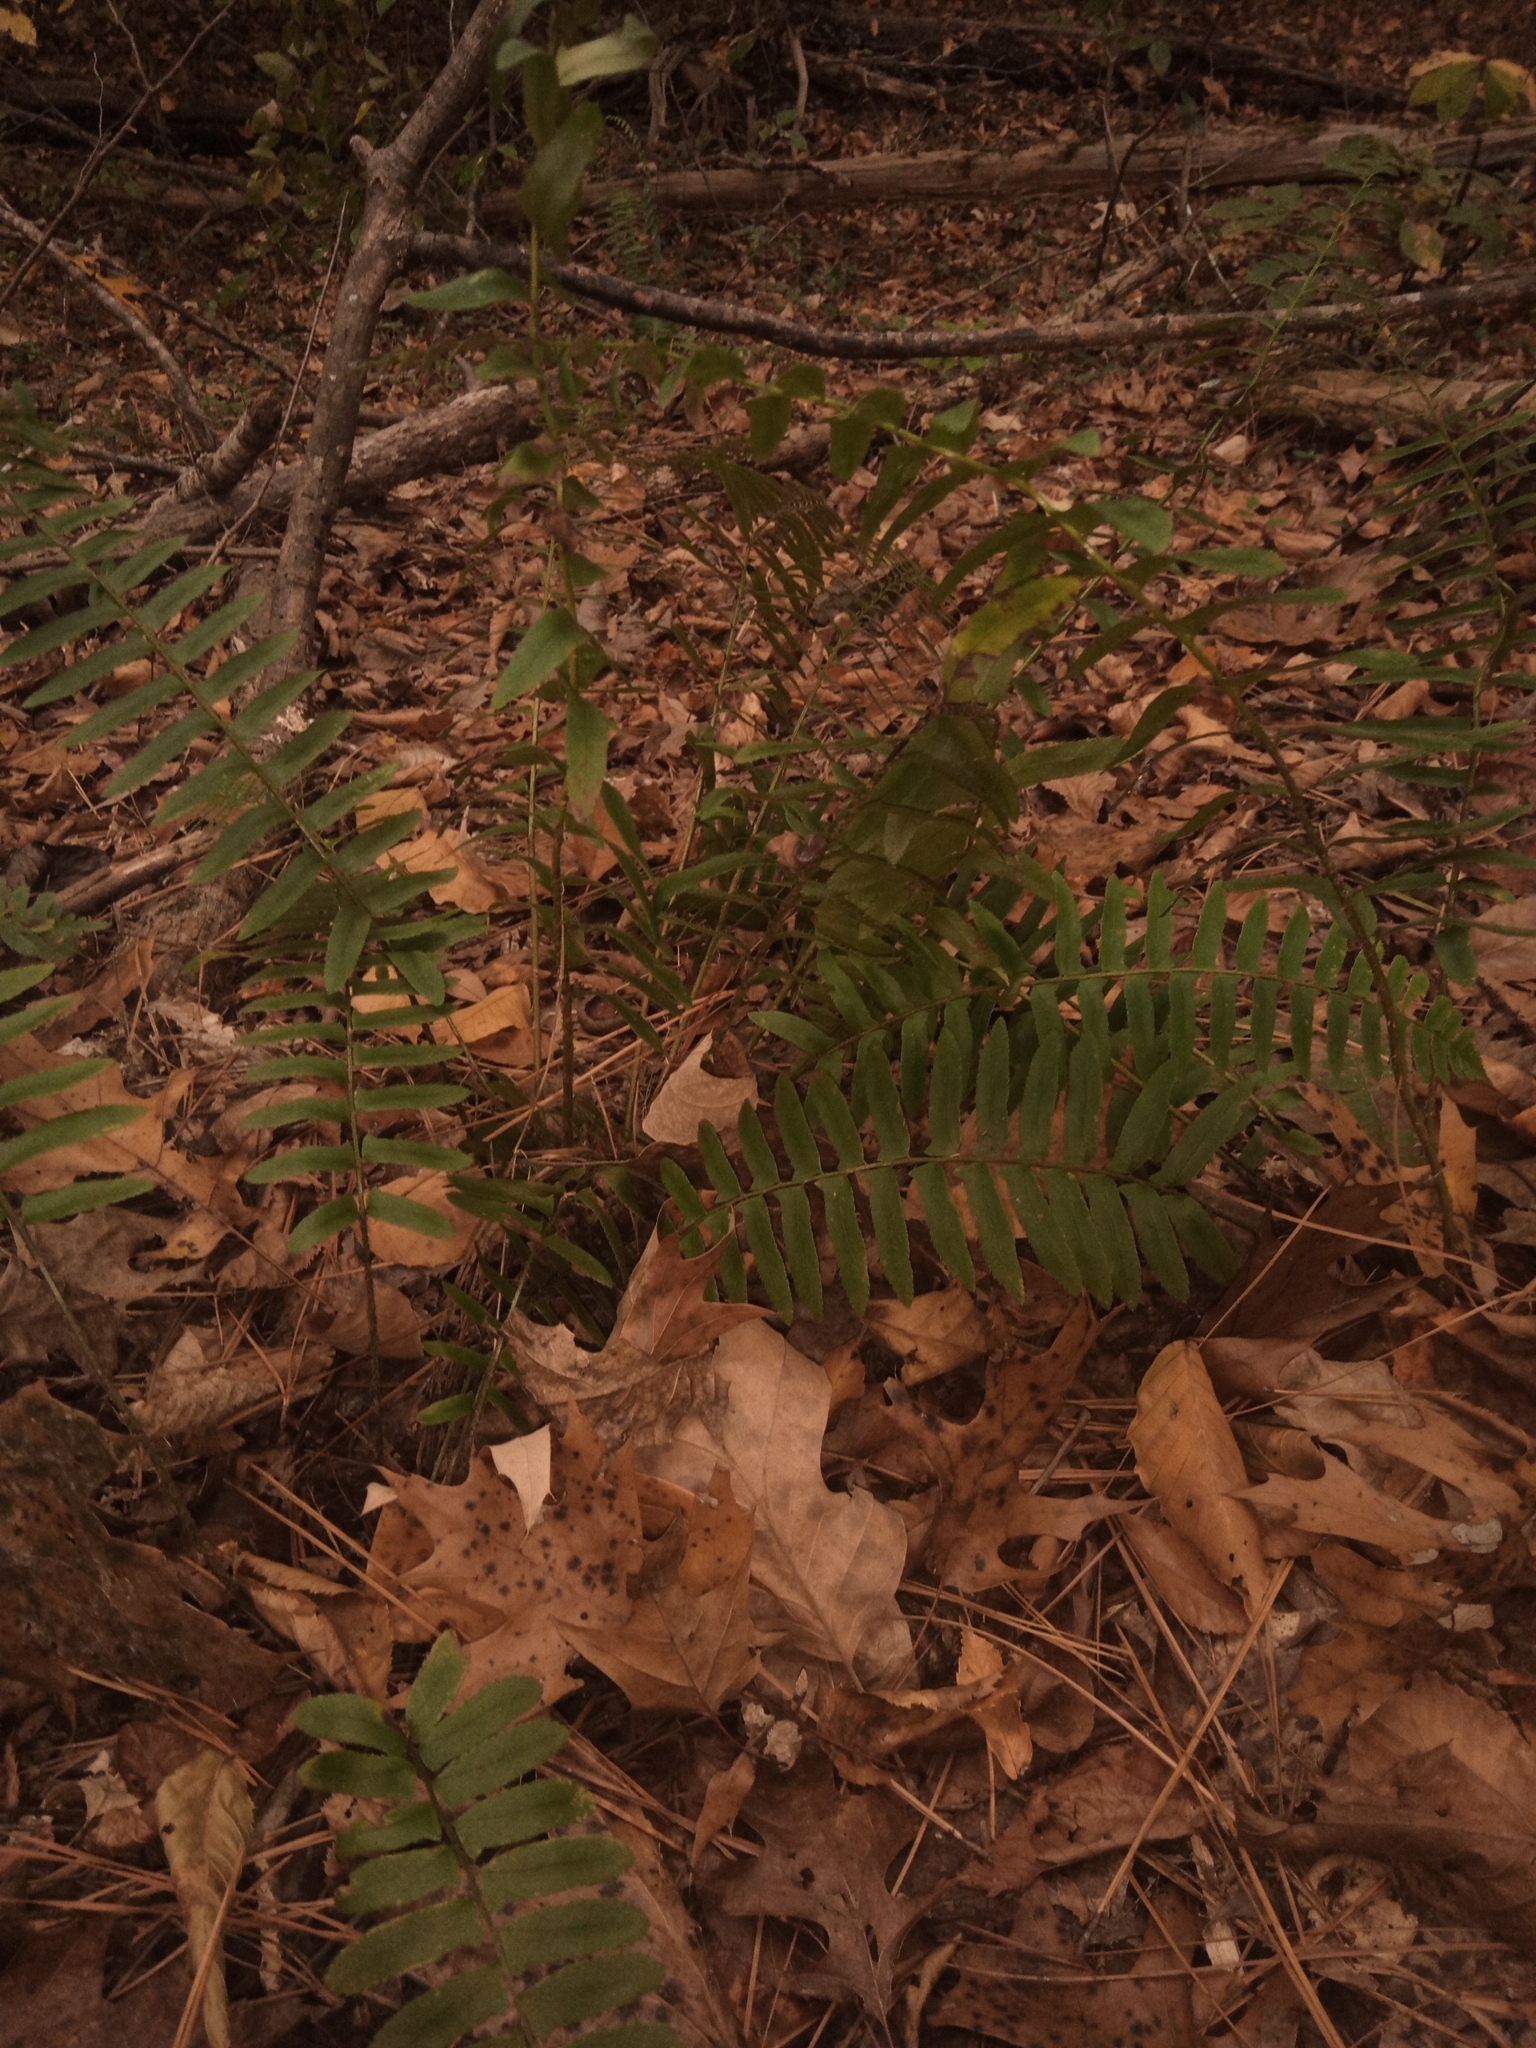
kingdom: Plantae
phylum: Tracheophyta
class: Polypodiopsida
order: Polypodiales
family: Dryopteridaceae
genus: Polystichum
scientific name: Polystichum acrostichoides
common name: Christmas fern
